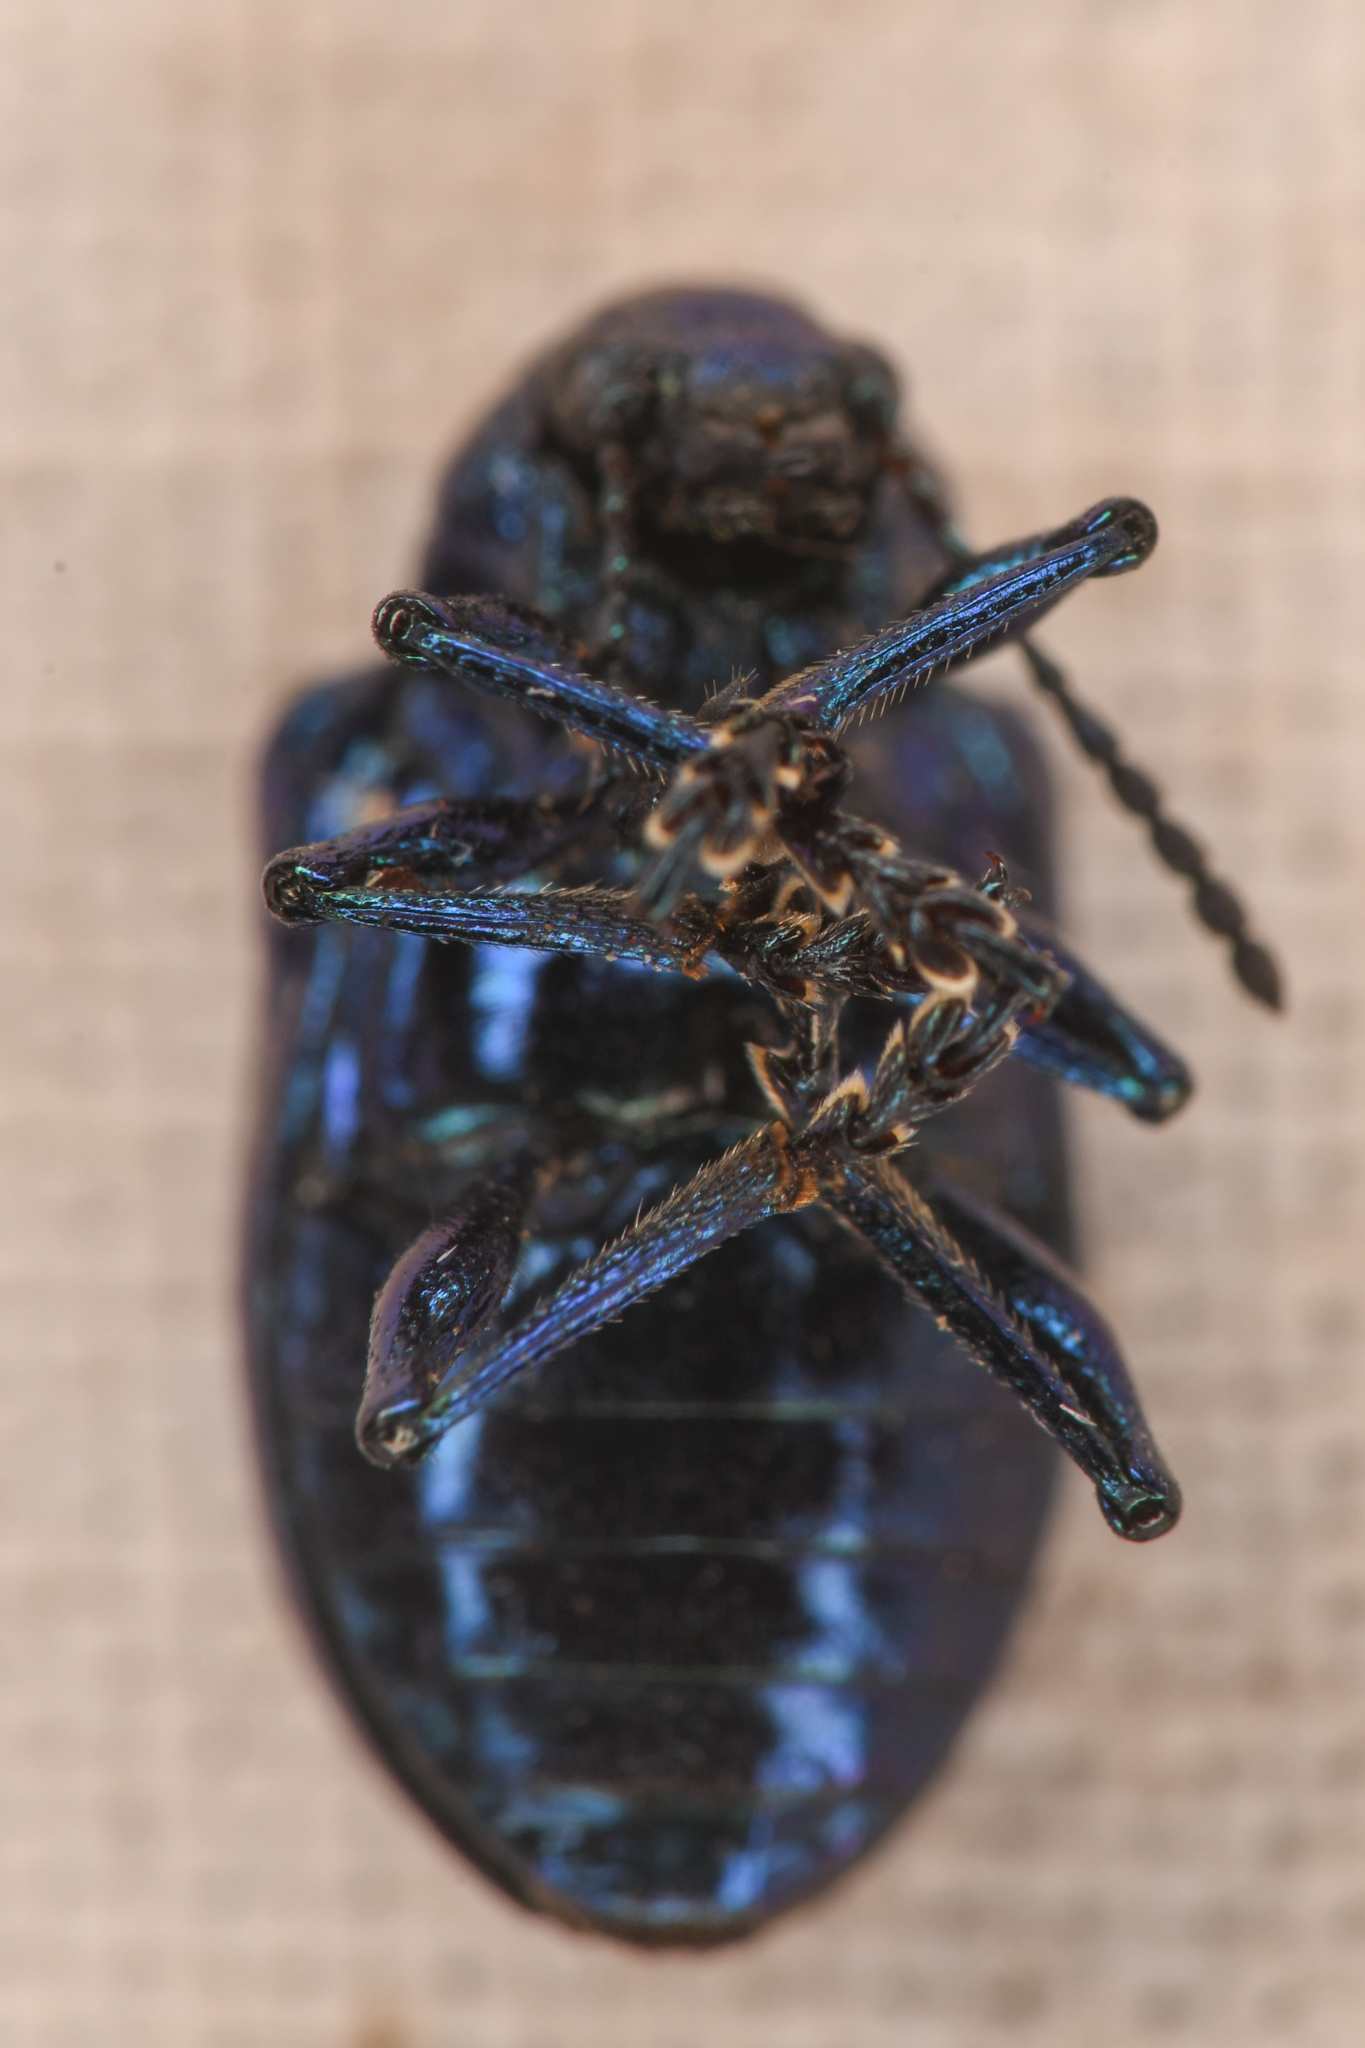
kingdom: Animalia
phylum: Arthropoda
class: Insecta
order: Coleoptera
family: Chrysomelidae
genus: Chrysochus
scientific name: Chrysochus cobaltinus
